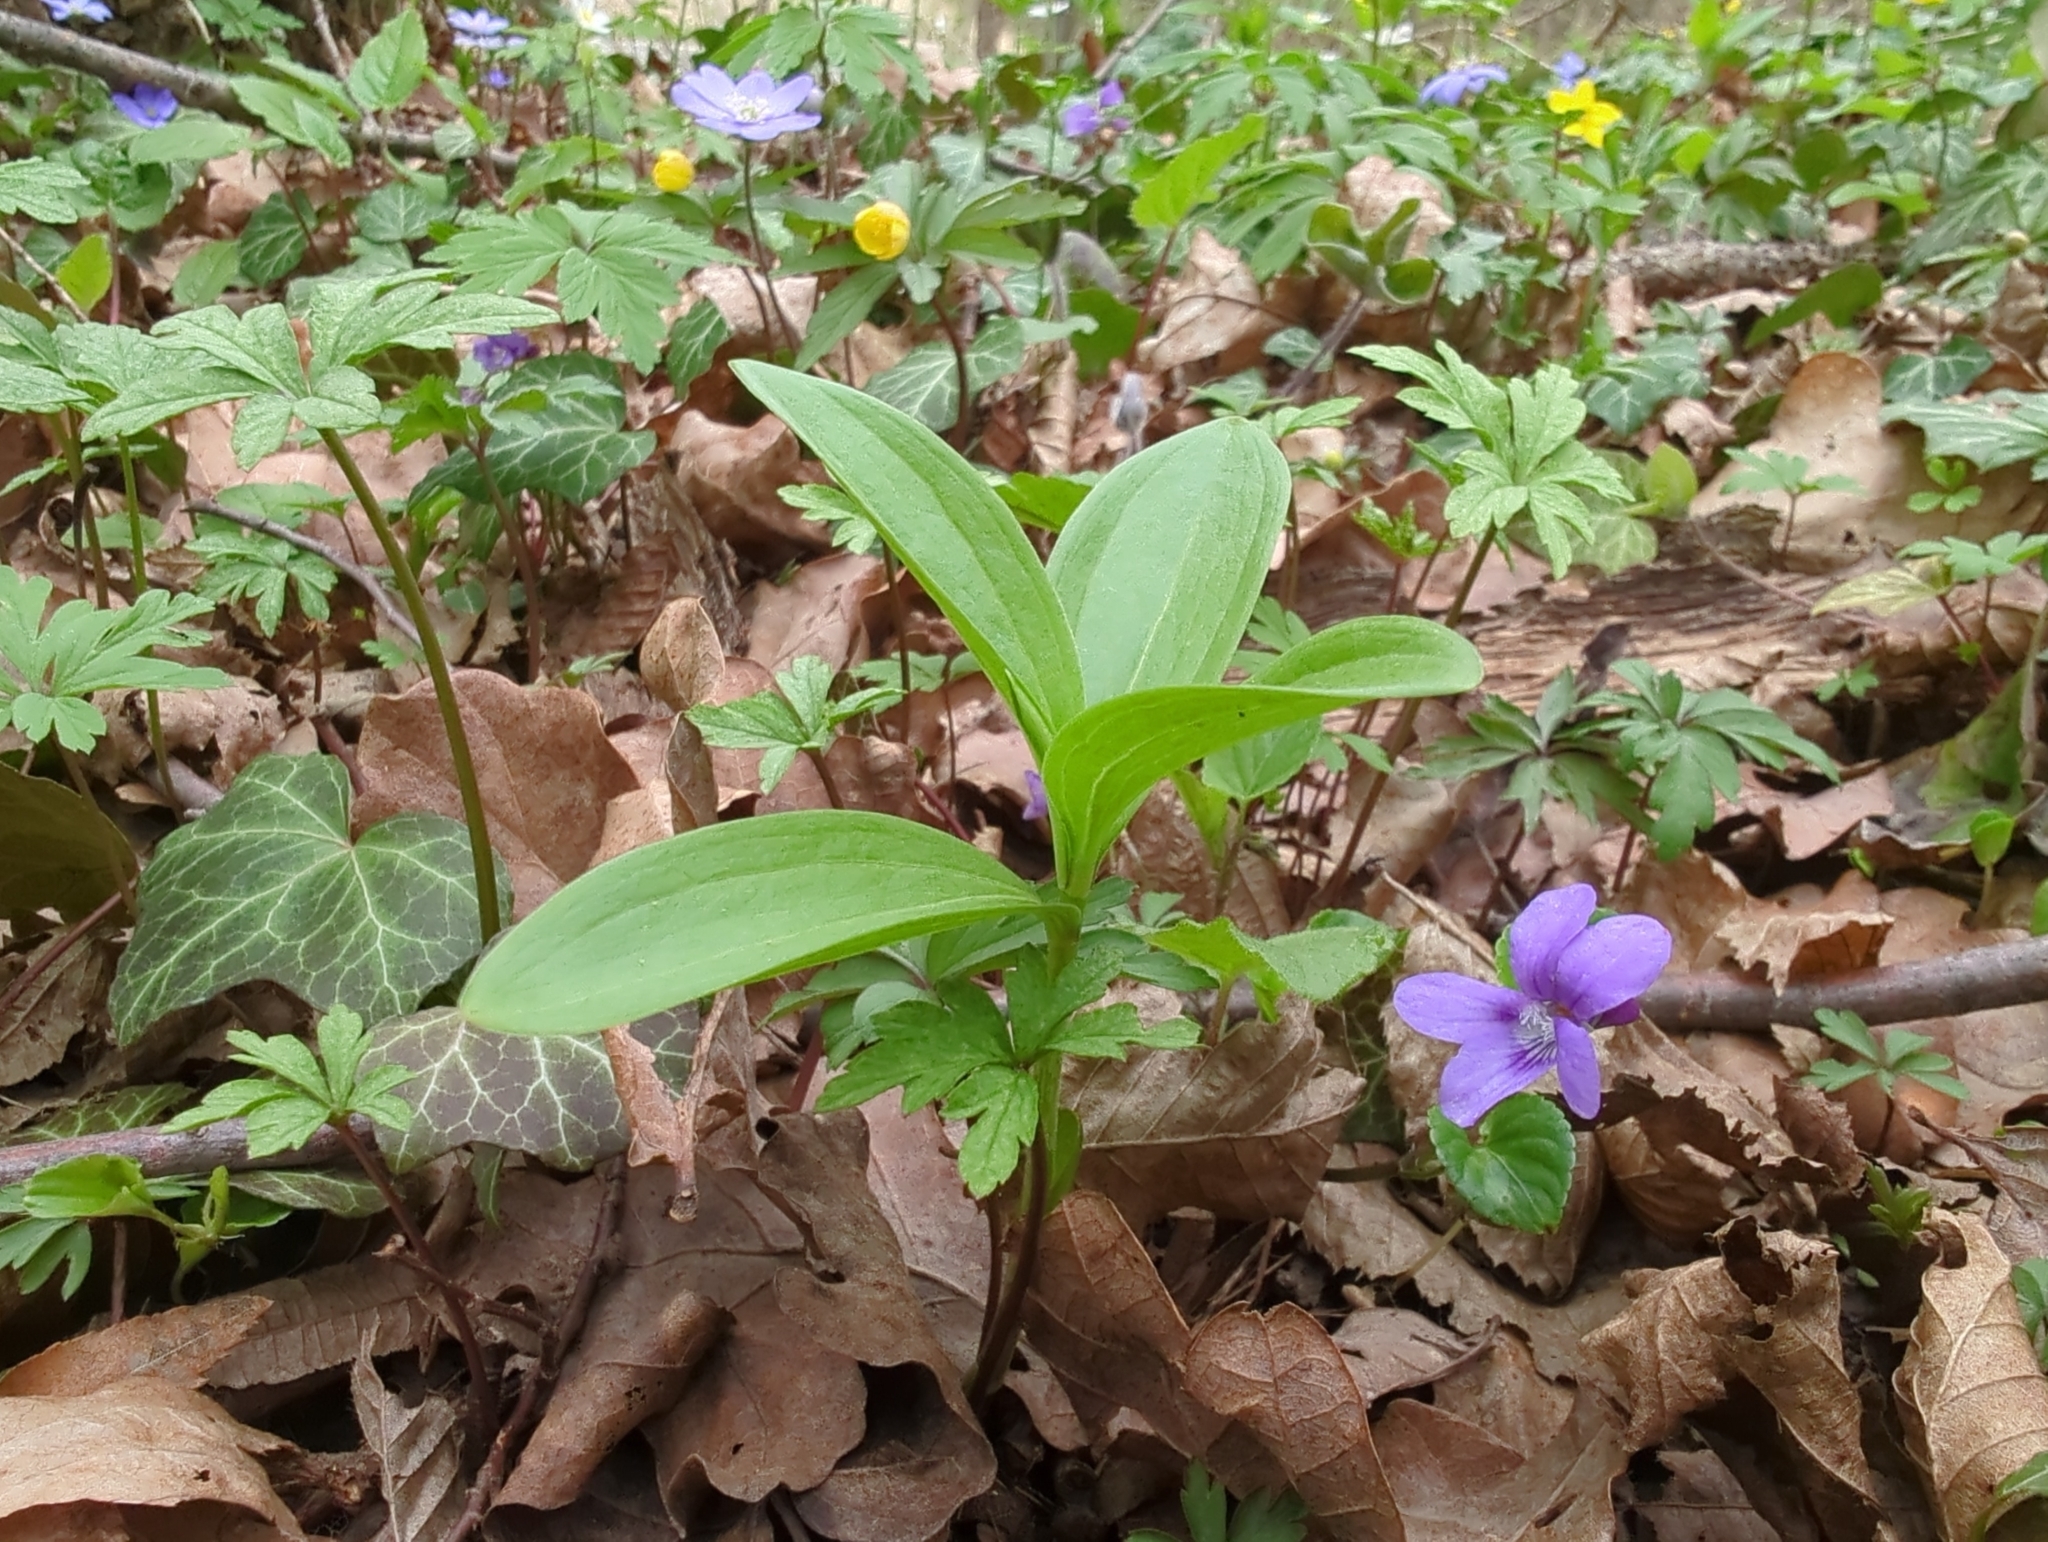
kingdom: Plantae
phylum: Tracheophyta
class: Liliopsida
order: Liliales
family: Liliaceae
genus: Lilium
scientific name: Lilium martagon
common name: Martagon lily
